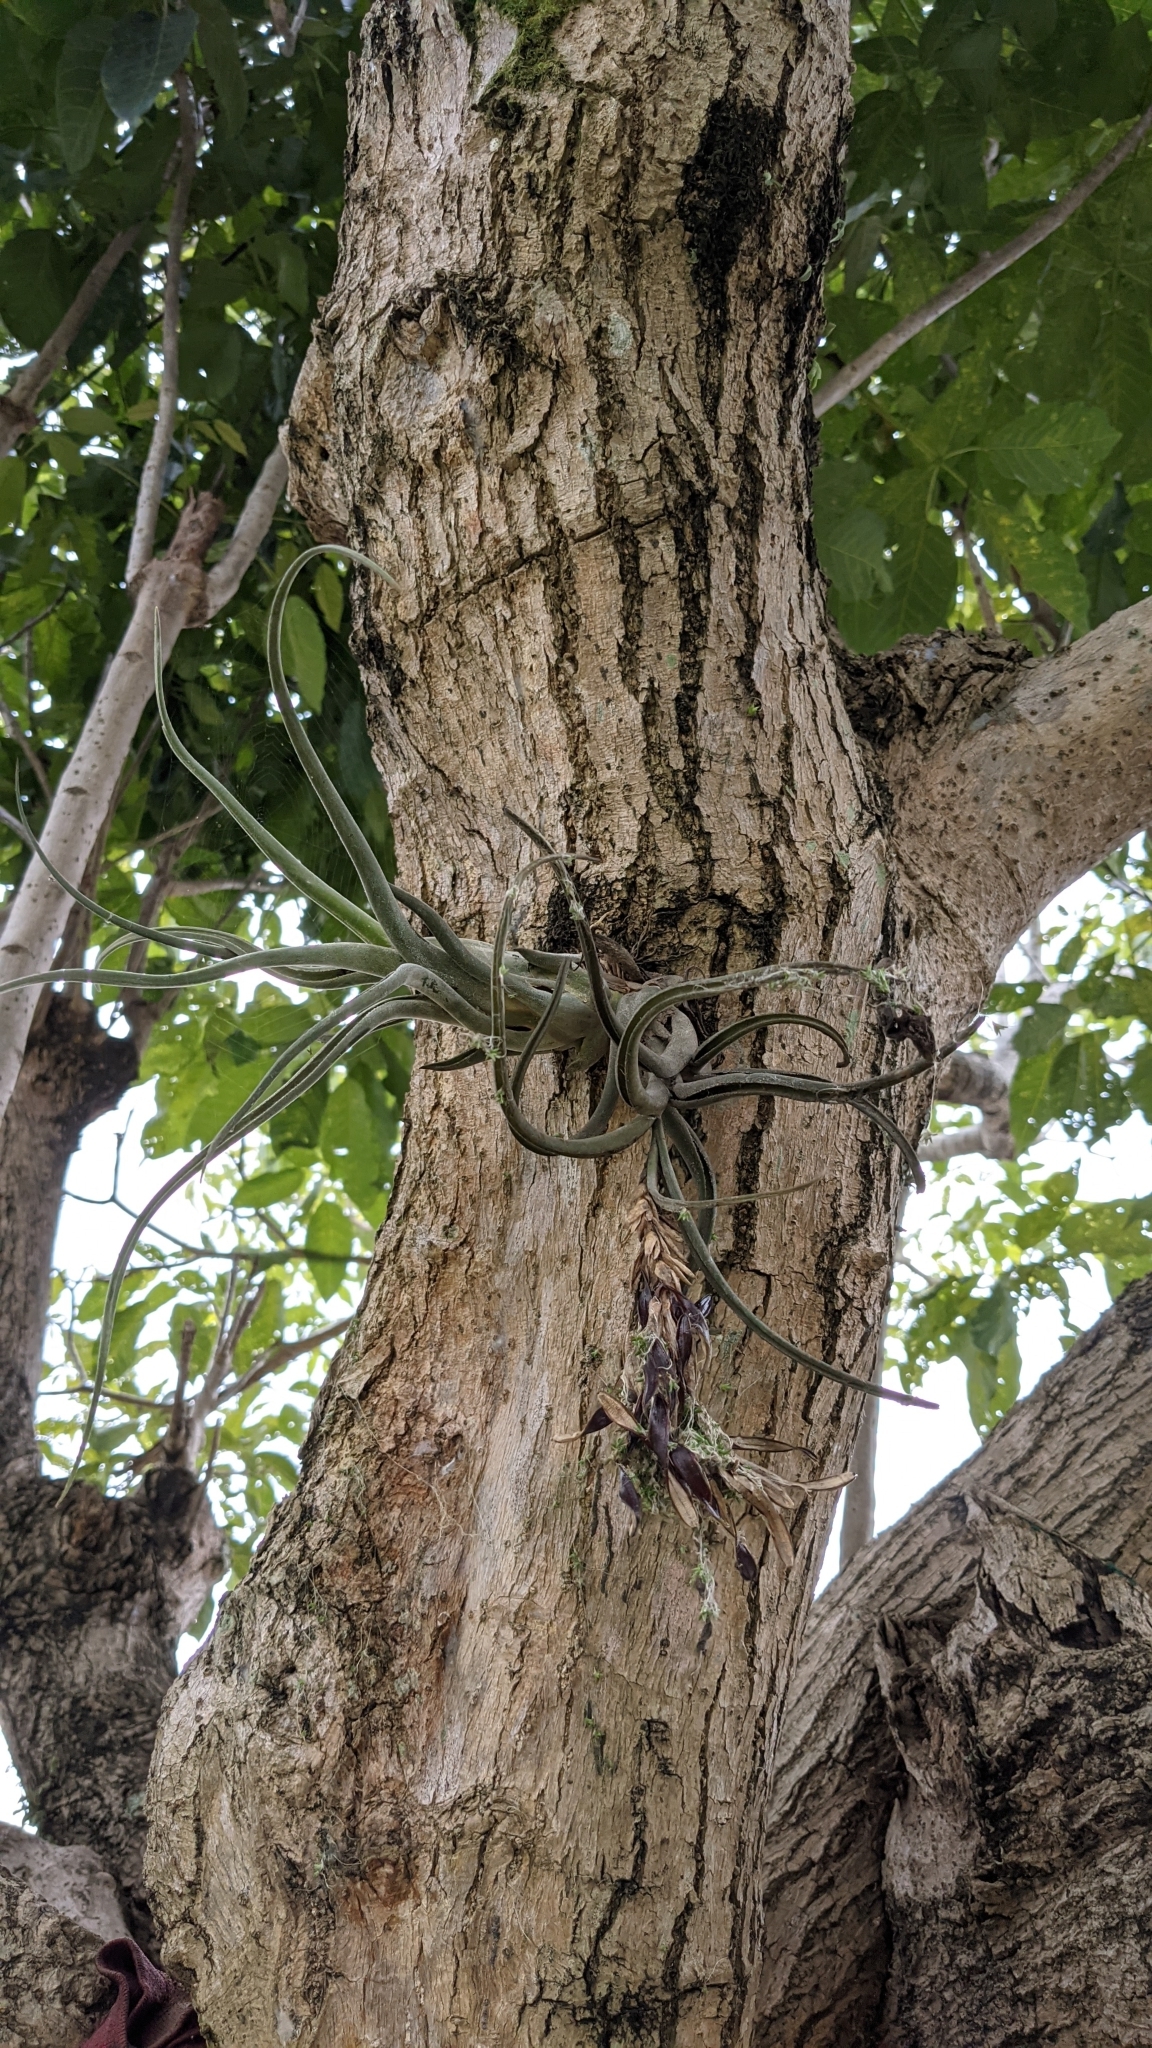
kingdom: Plantae
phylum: Tracheophyta
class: Liliopsida
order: Poales
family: Bromeliaceae
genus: Tillandsia
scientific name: Tillandsia caput-medusae
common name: Octopus plant
